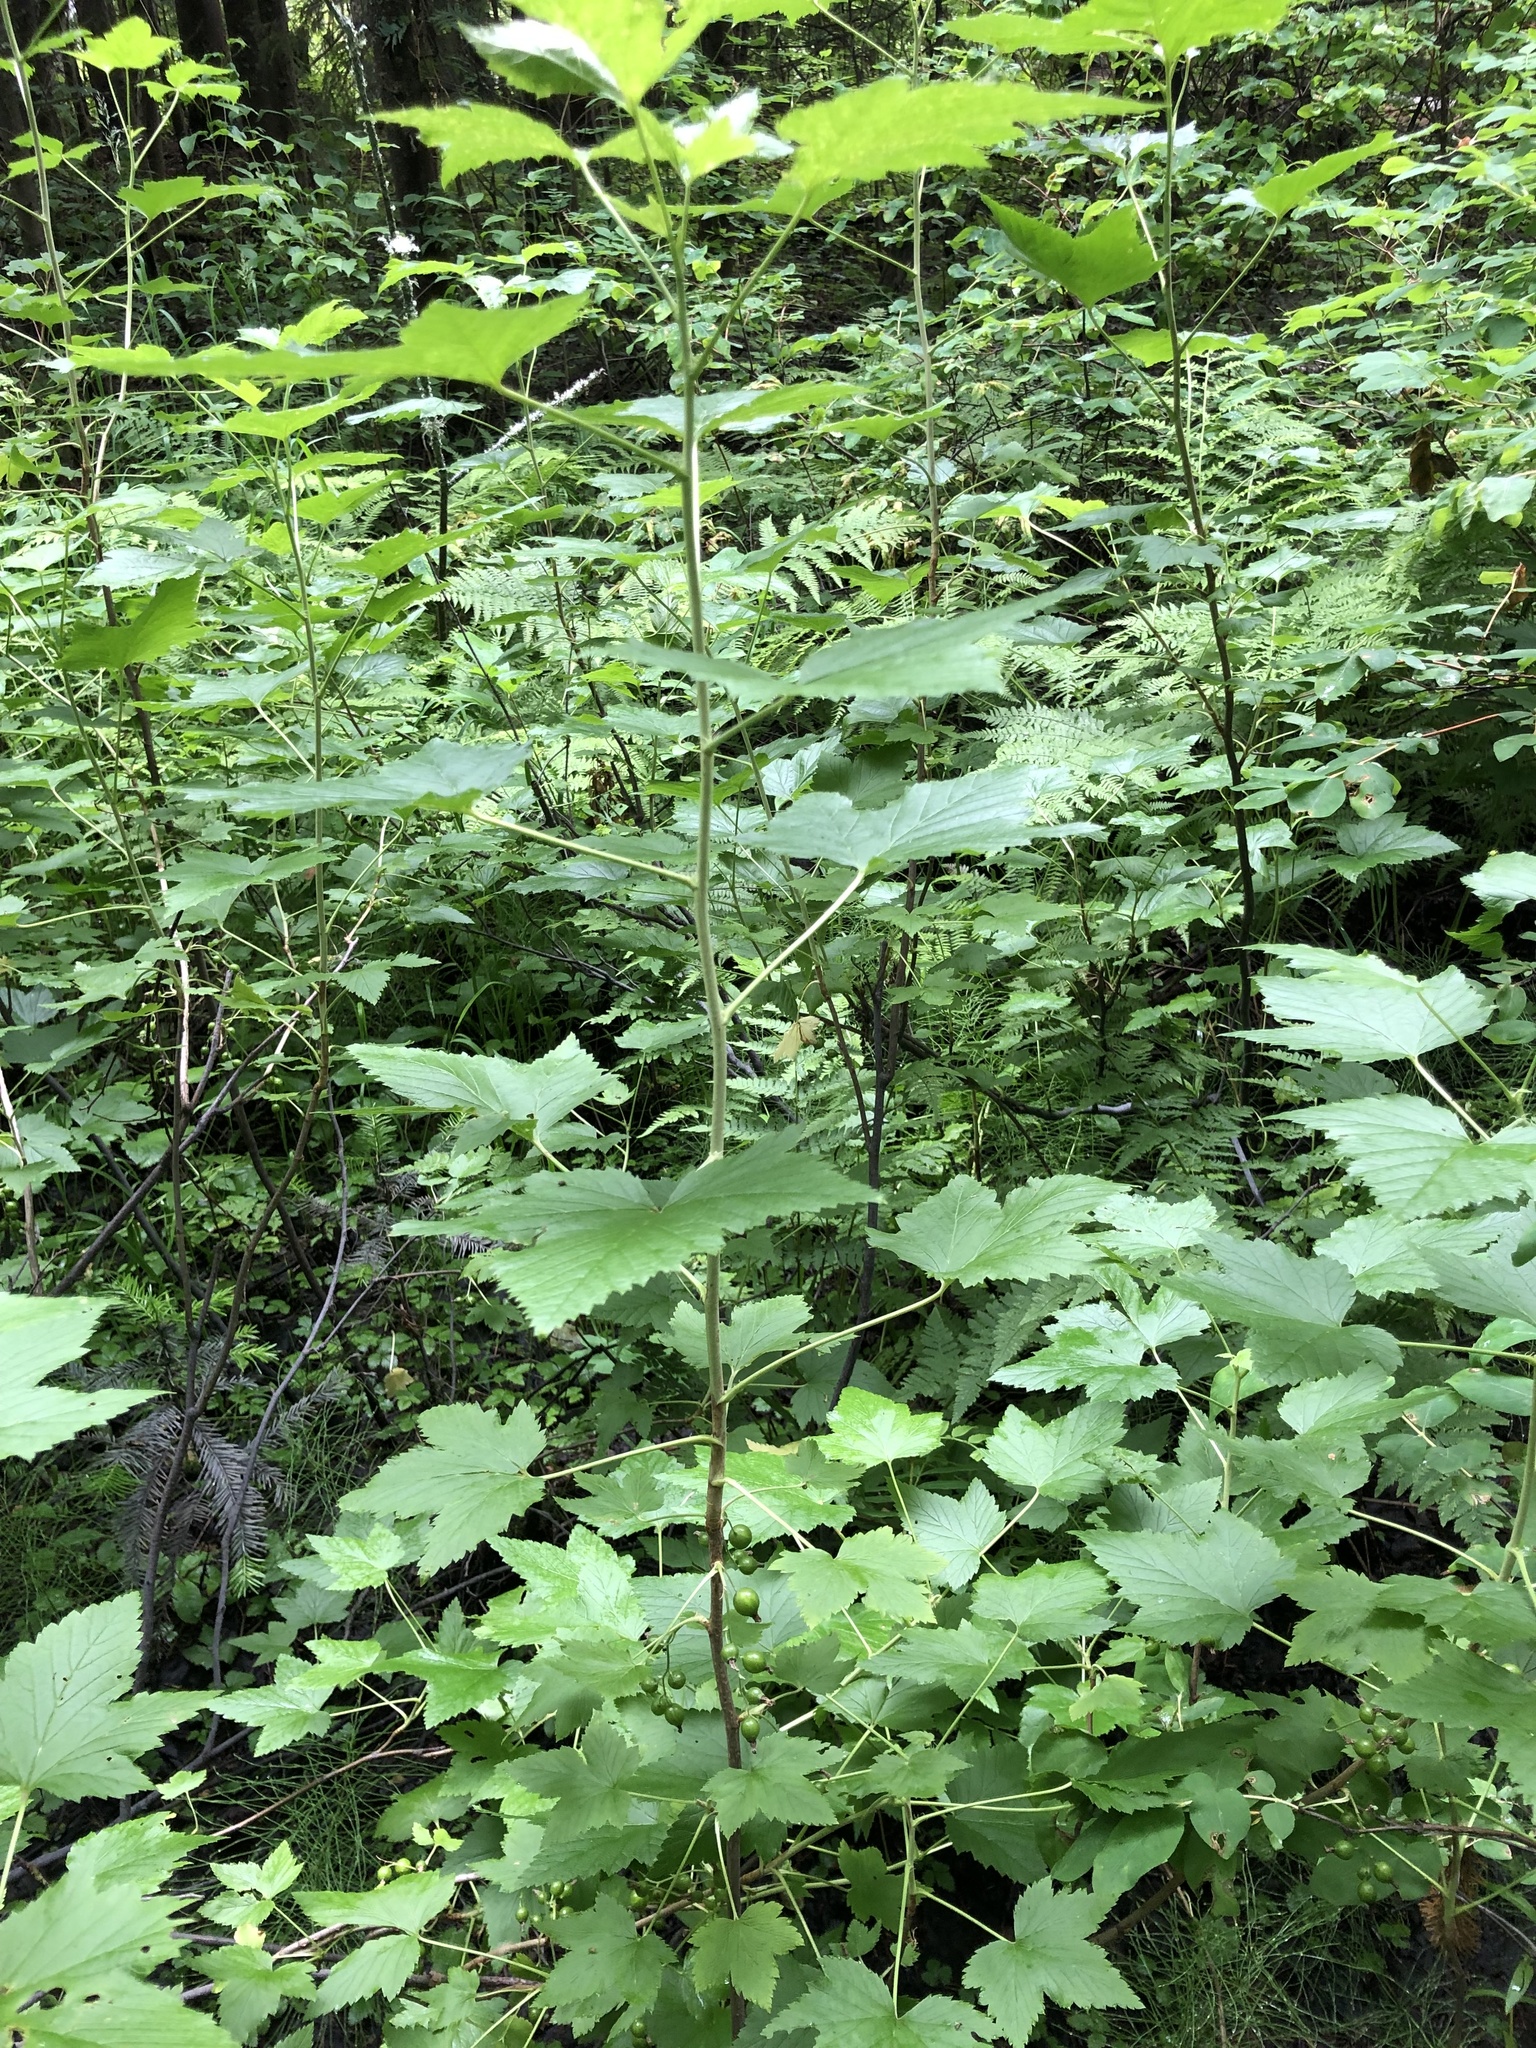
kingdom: Plantae
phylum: Tracheophyta
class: Magnoliopsida
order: Saxifragales
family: Grossulariaceae
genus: Ribes
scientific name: Ribes nigrum
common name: Black currant
